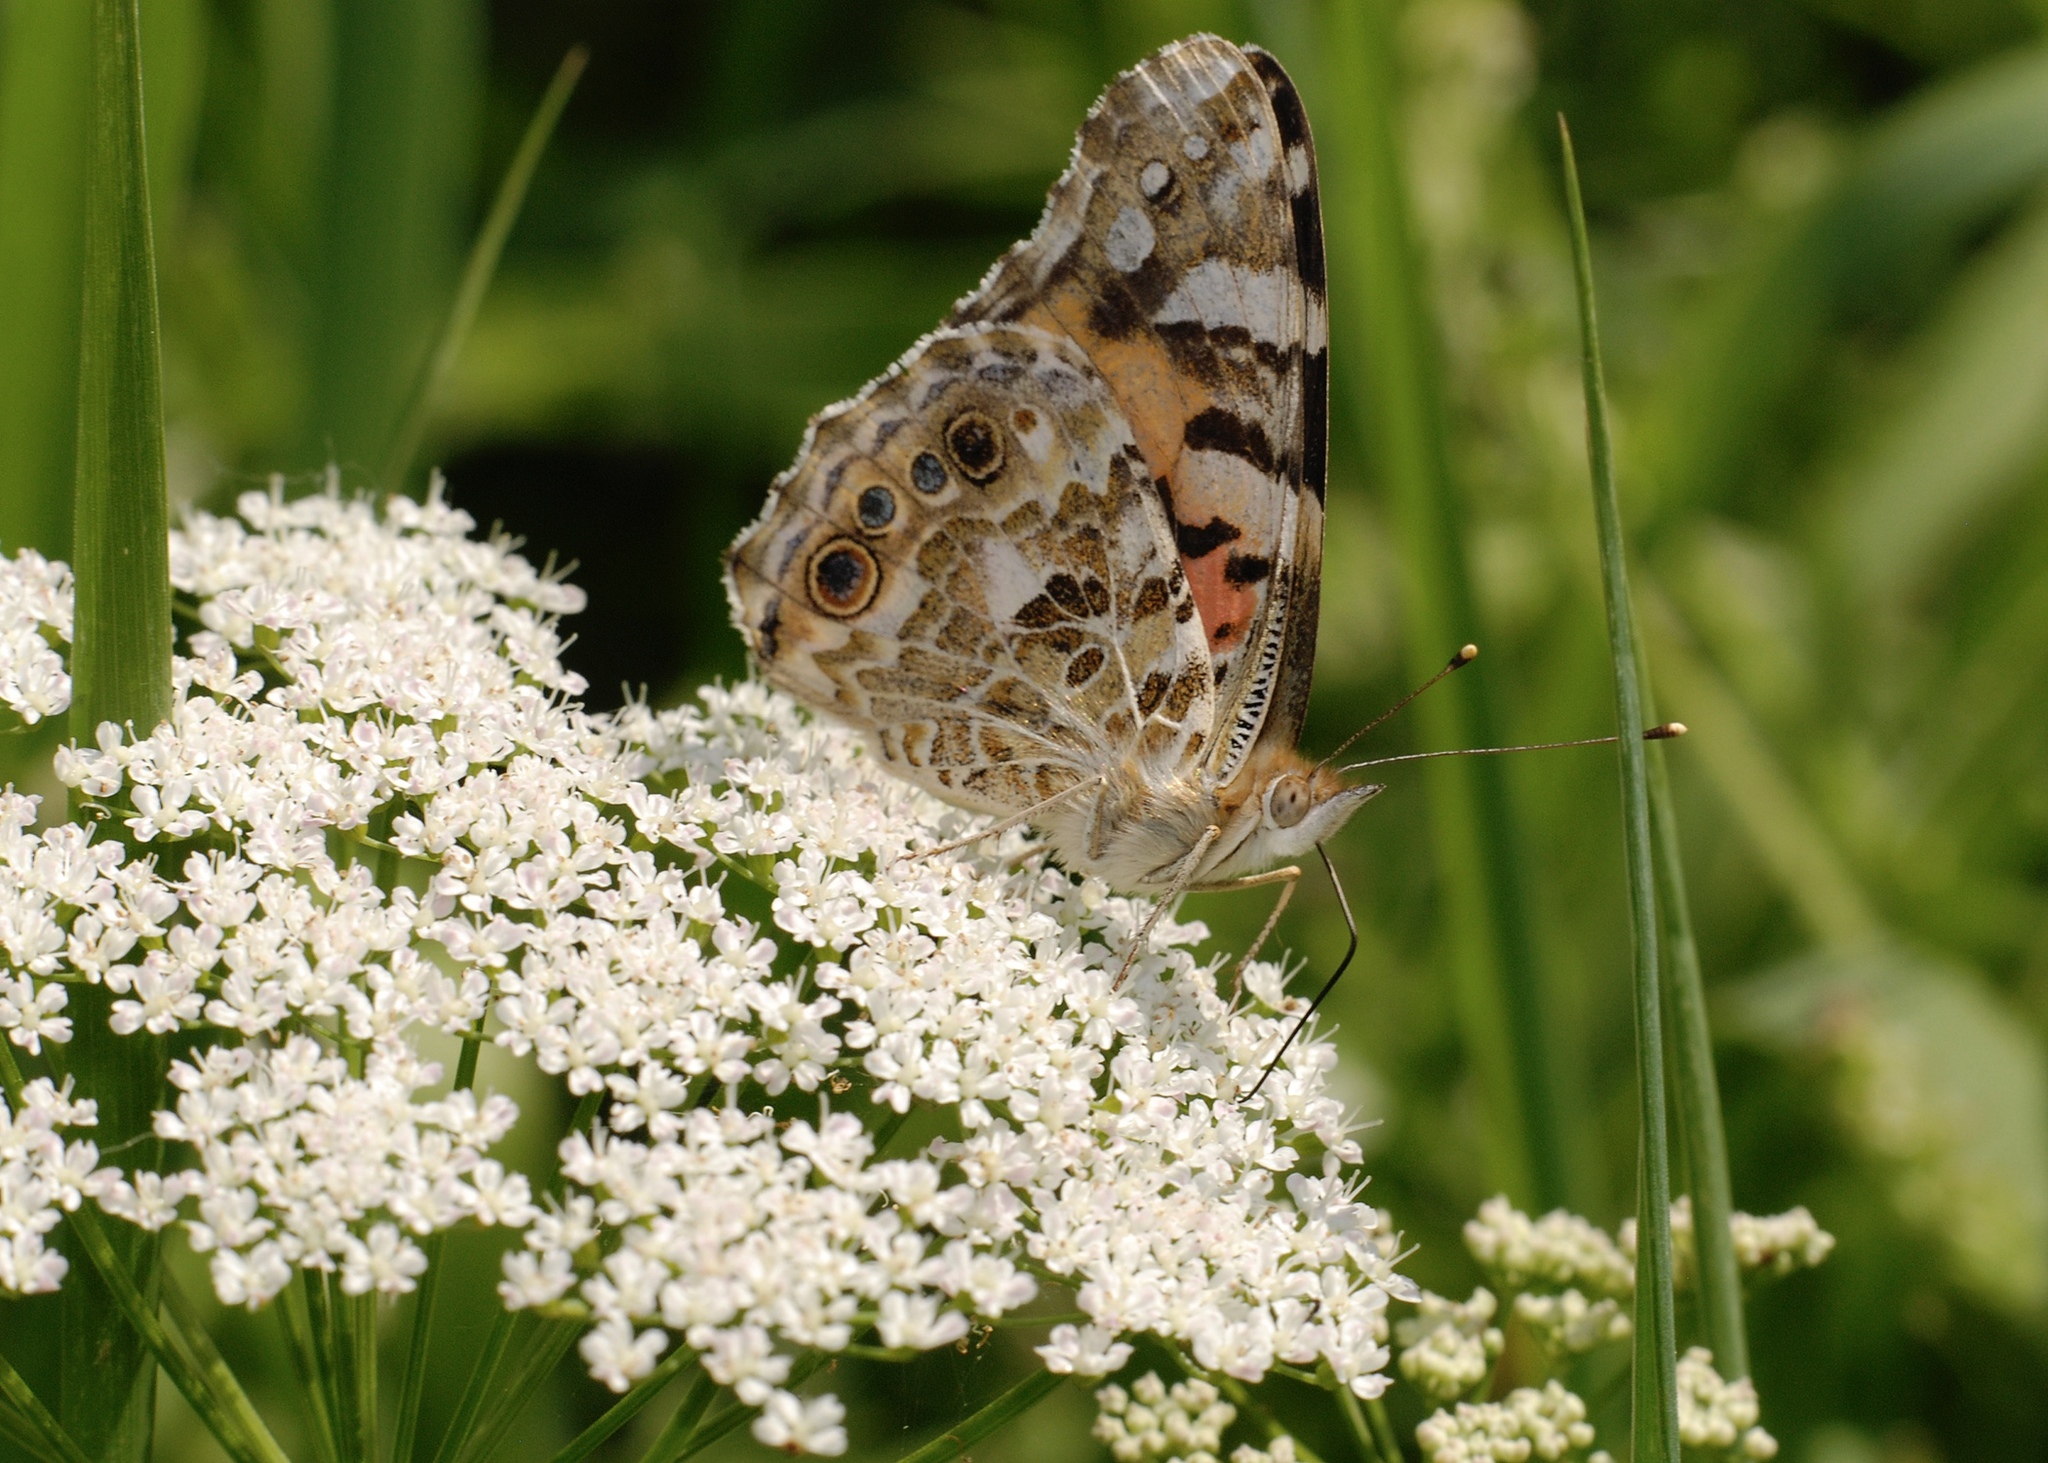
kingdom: Animalia
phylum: Arthropoda
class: Insecta
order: Lepidoptera
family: Nymphalidae
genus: Vanessa
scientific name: Vanessa cardui
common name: Painted lady
